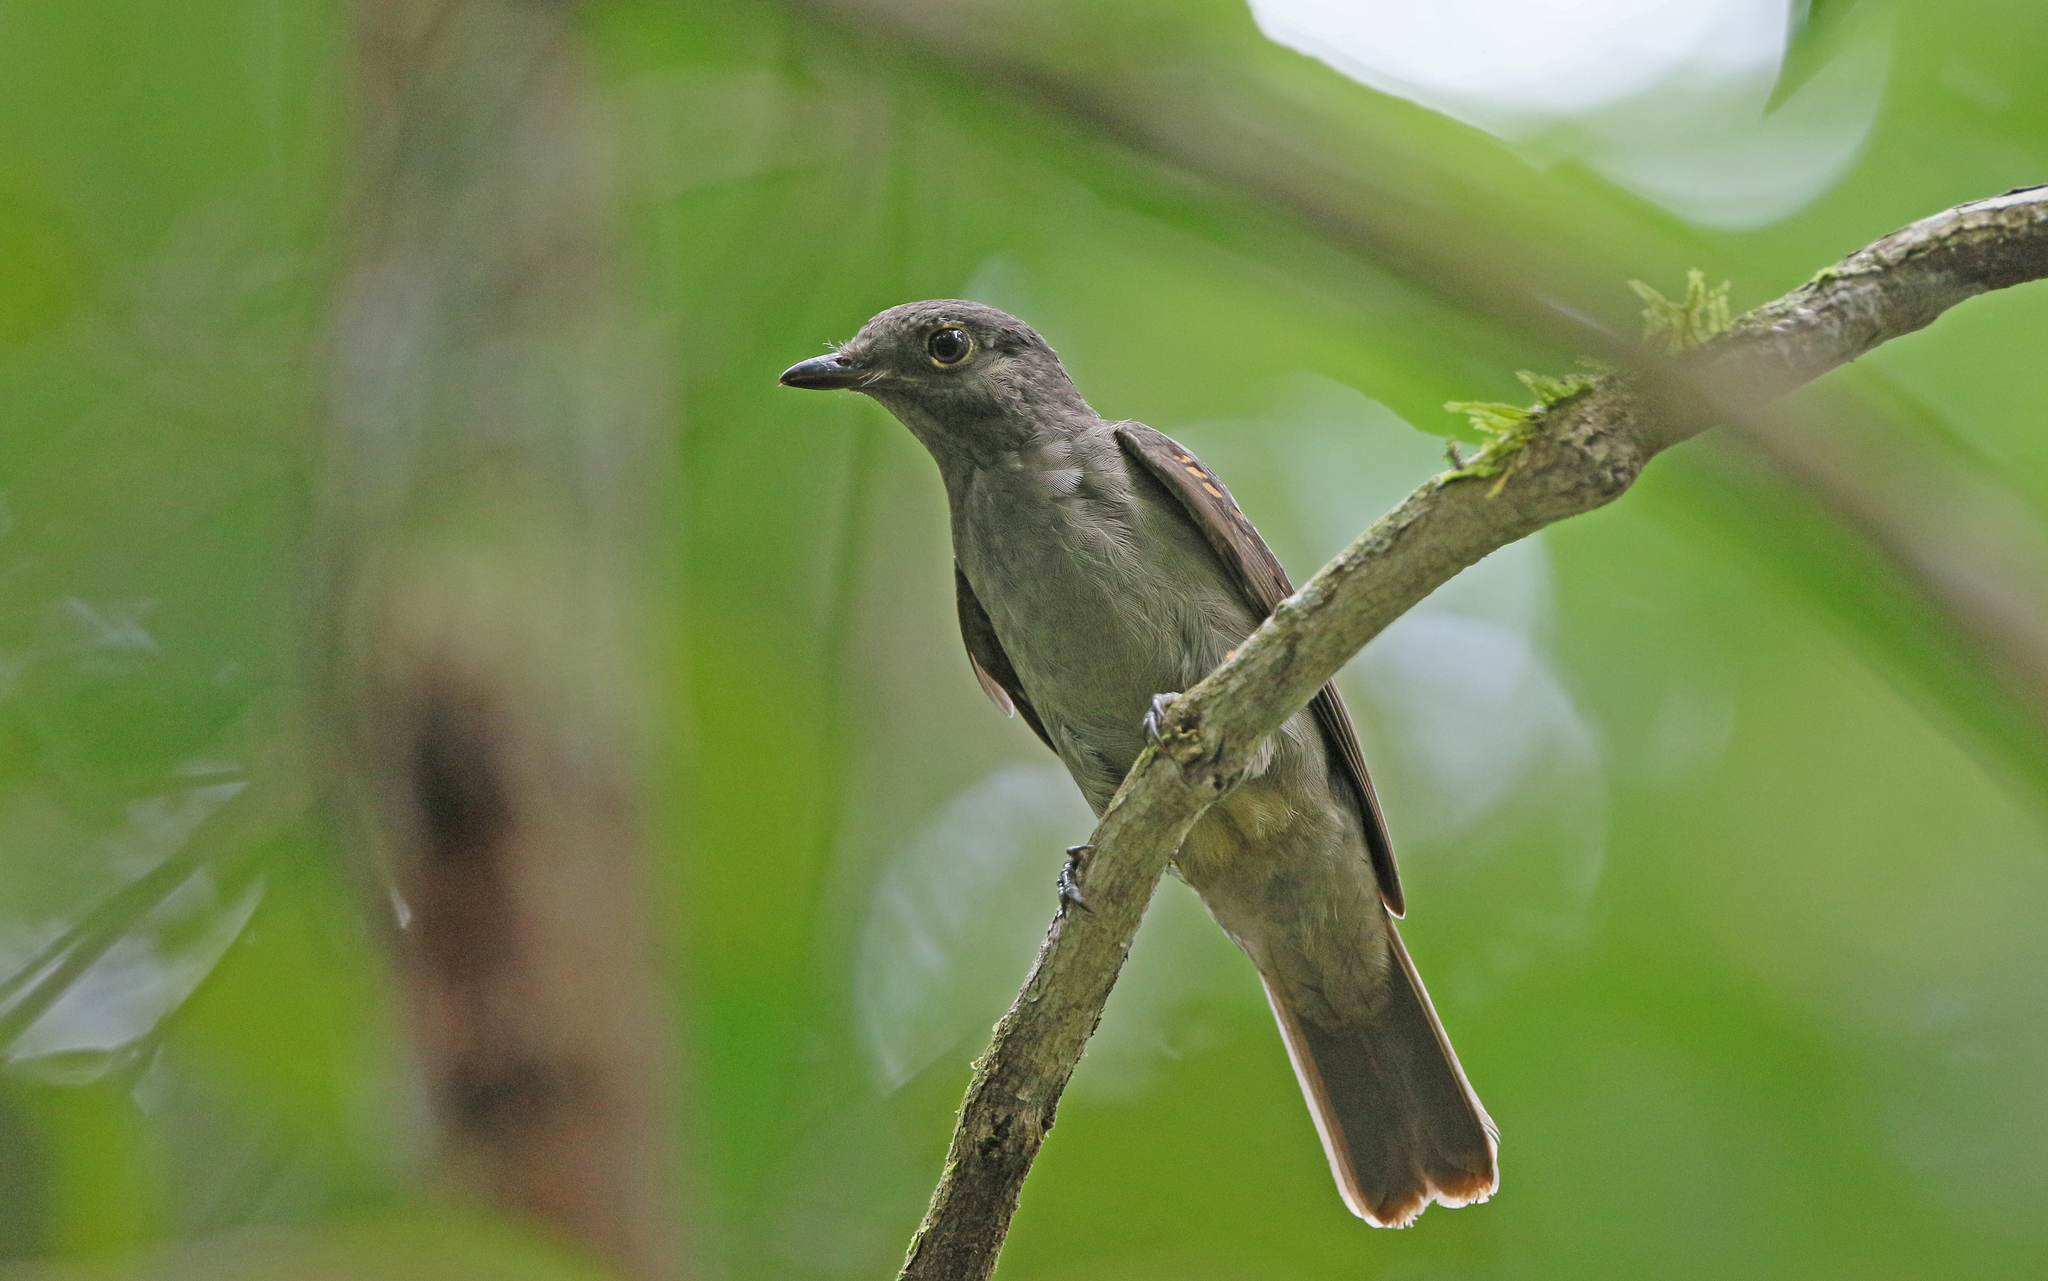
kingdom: Animalia
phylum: Chordata
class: Aves
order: Passeriformes
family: Cotingidae
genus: Laniocera
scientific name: Laniocera hypopyrra
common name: Cinereous mourner
